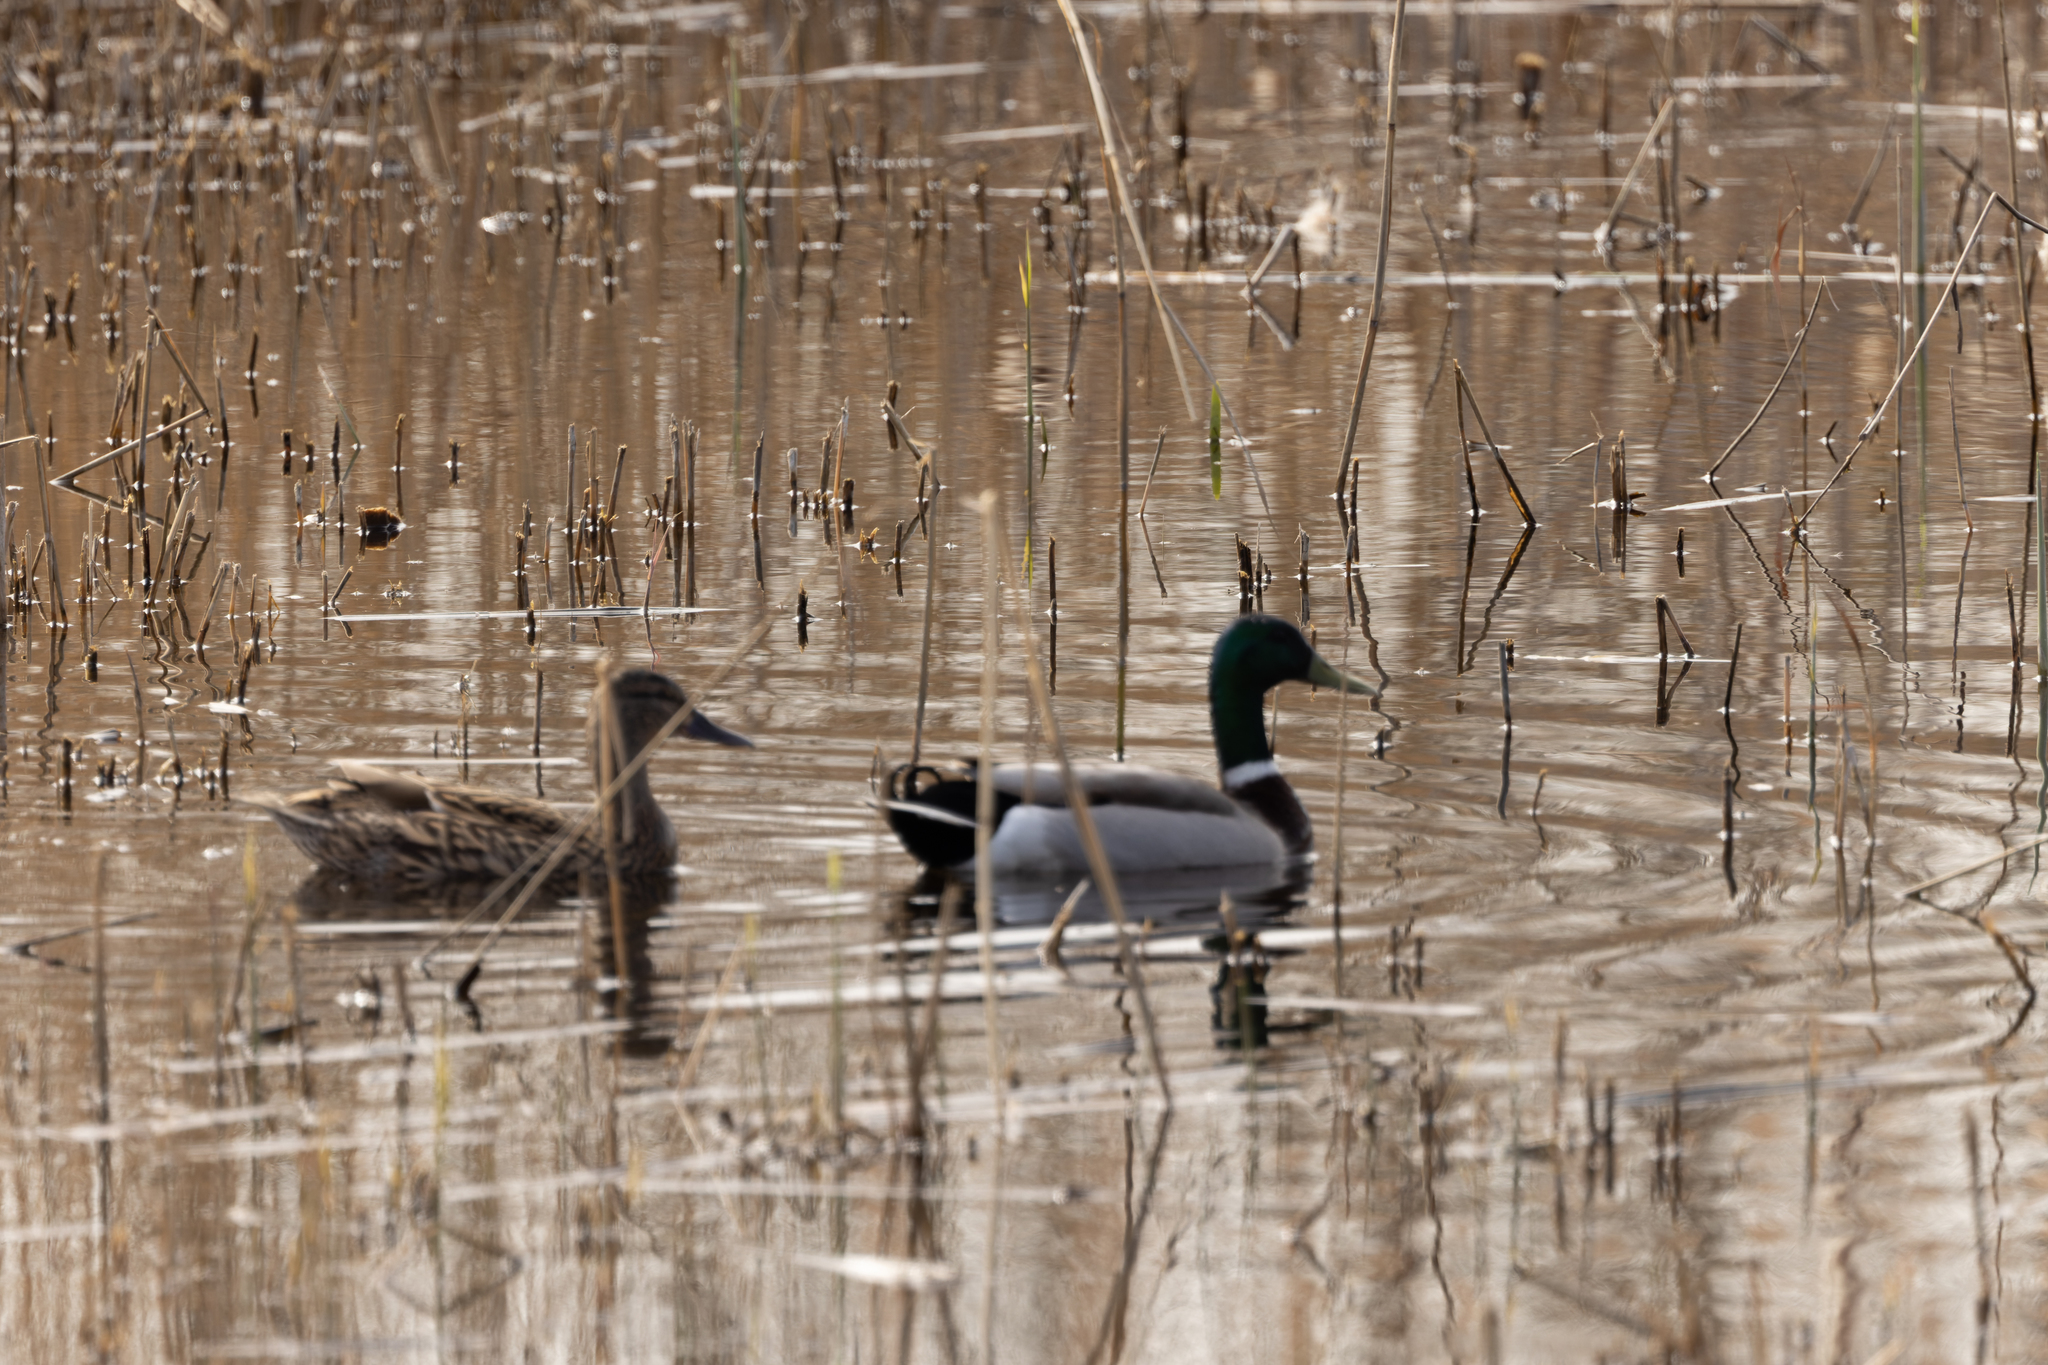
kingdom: Animalia
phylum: Chordata
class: Aves
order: Anseriformes
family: Anatidae
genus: Anas
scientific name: Anas platyrhynchos
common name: Mallard
